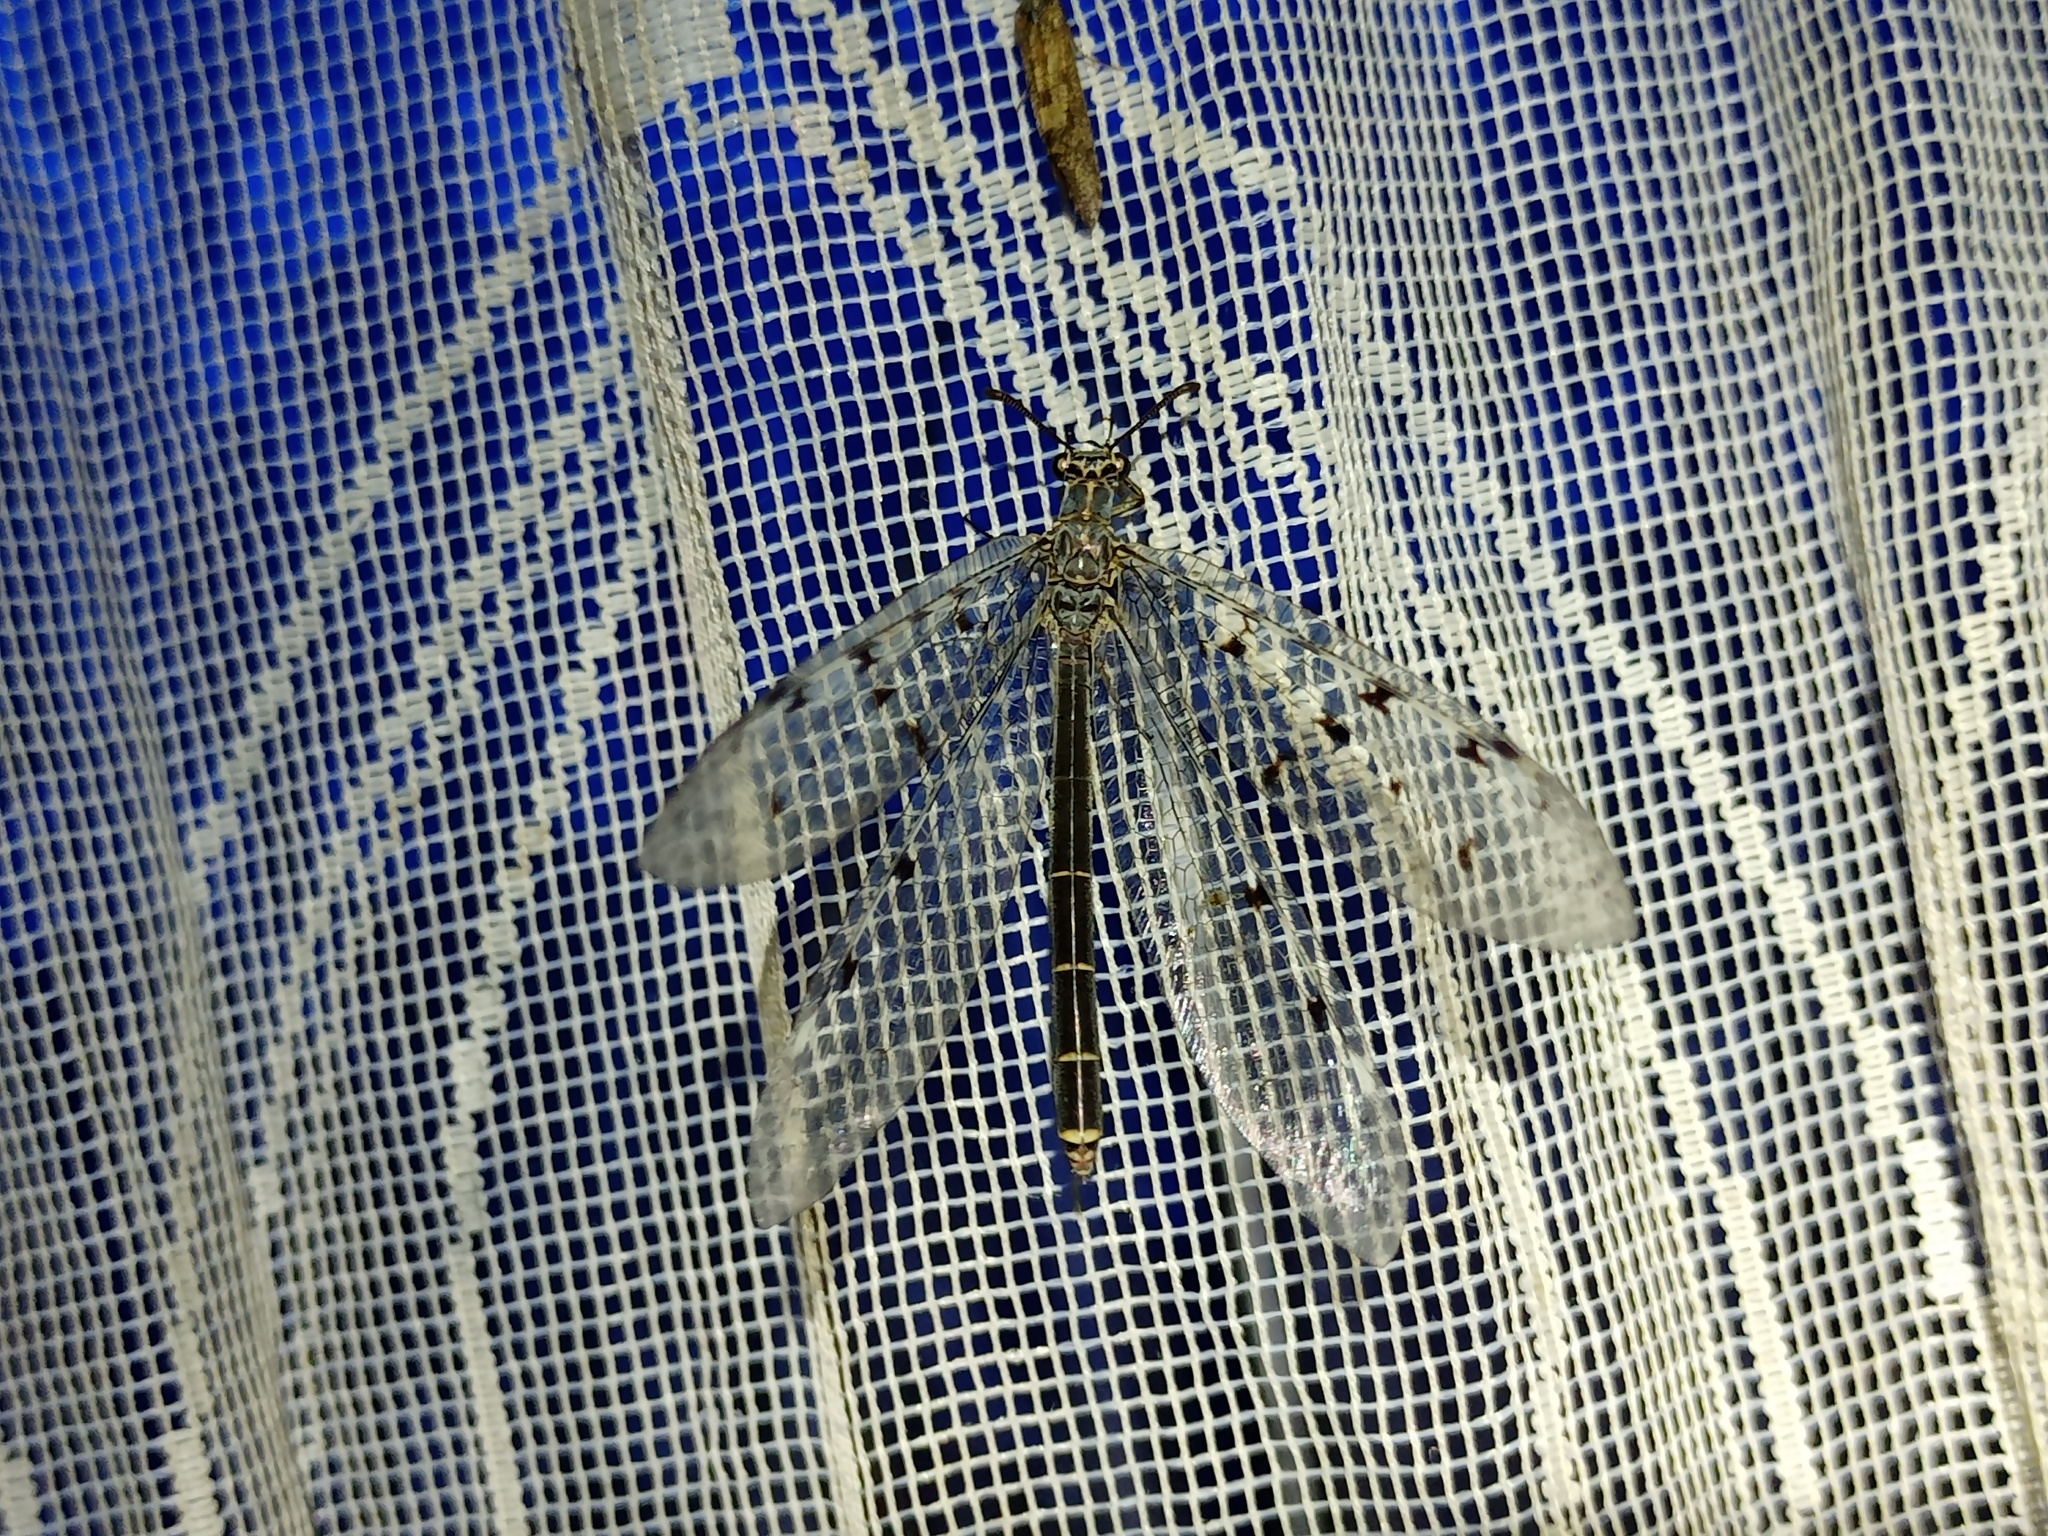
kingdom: Animalia
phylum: Arthropoda
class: Insecta
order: Neuroptera
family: Myrmeleontidae
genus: Euroleon
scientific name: Euroleon nostras
